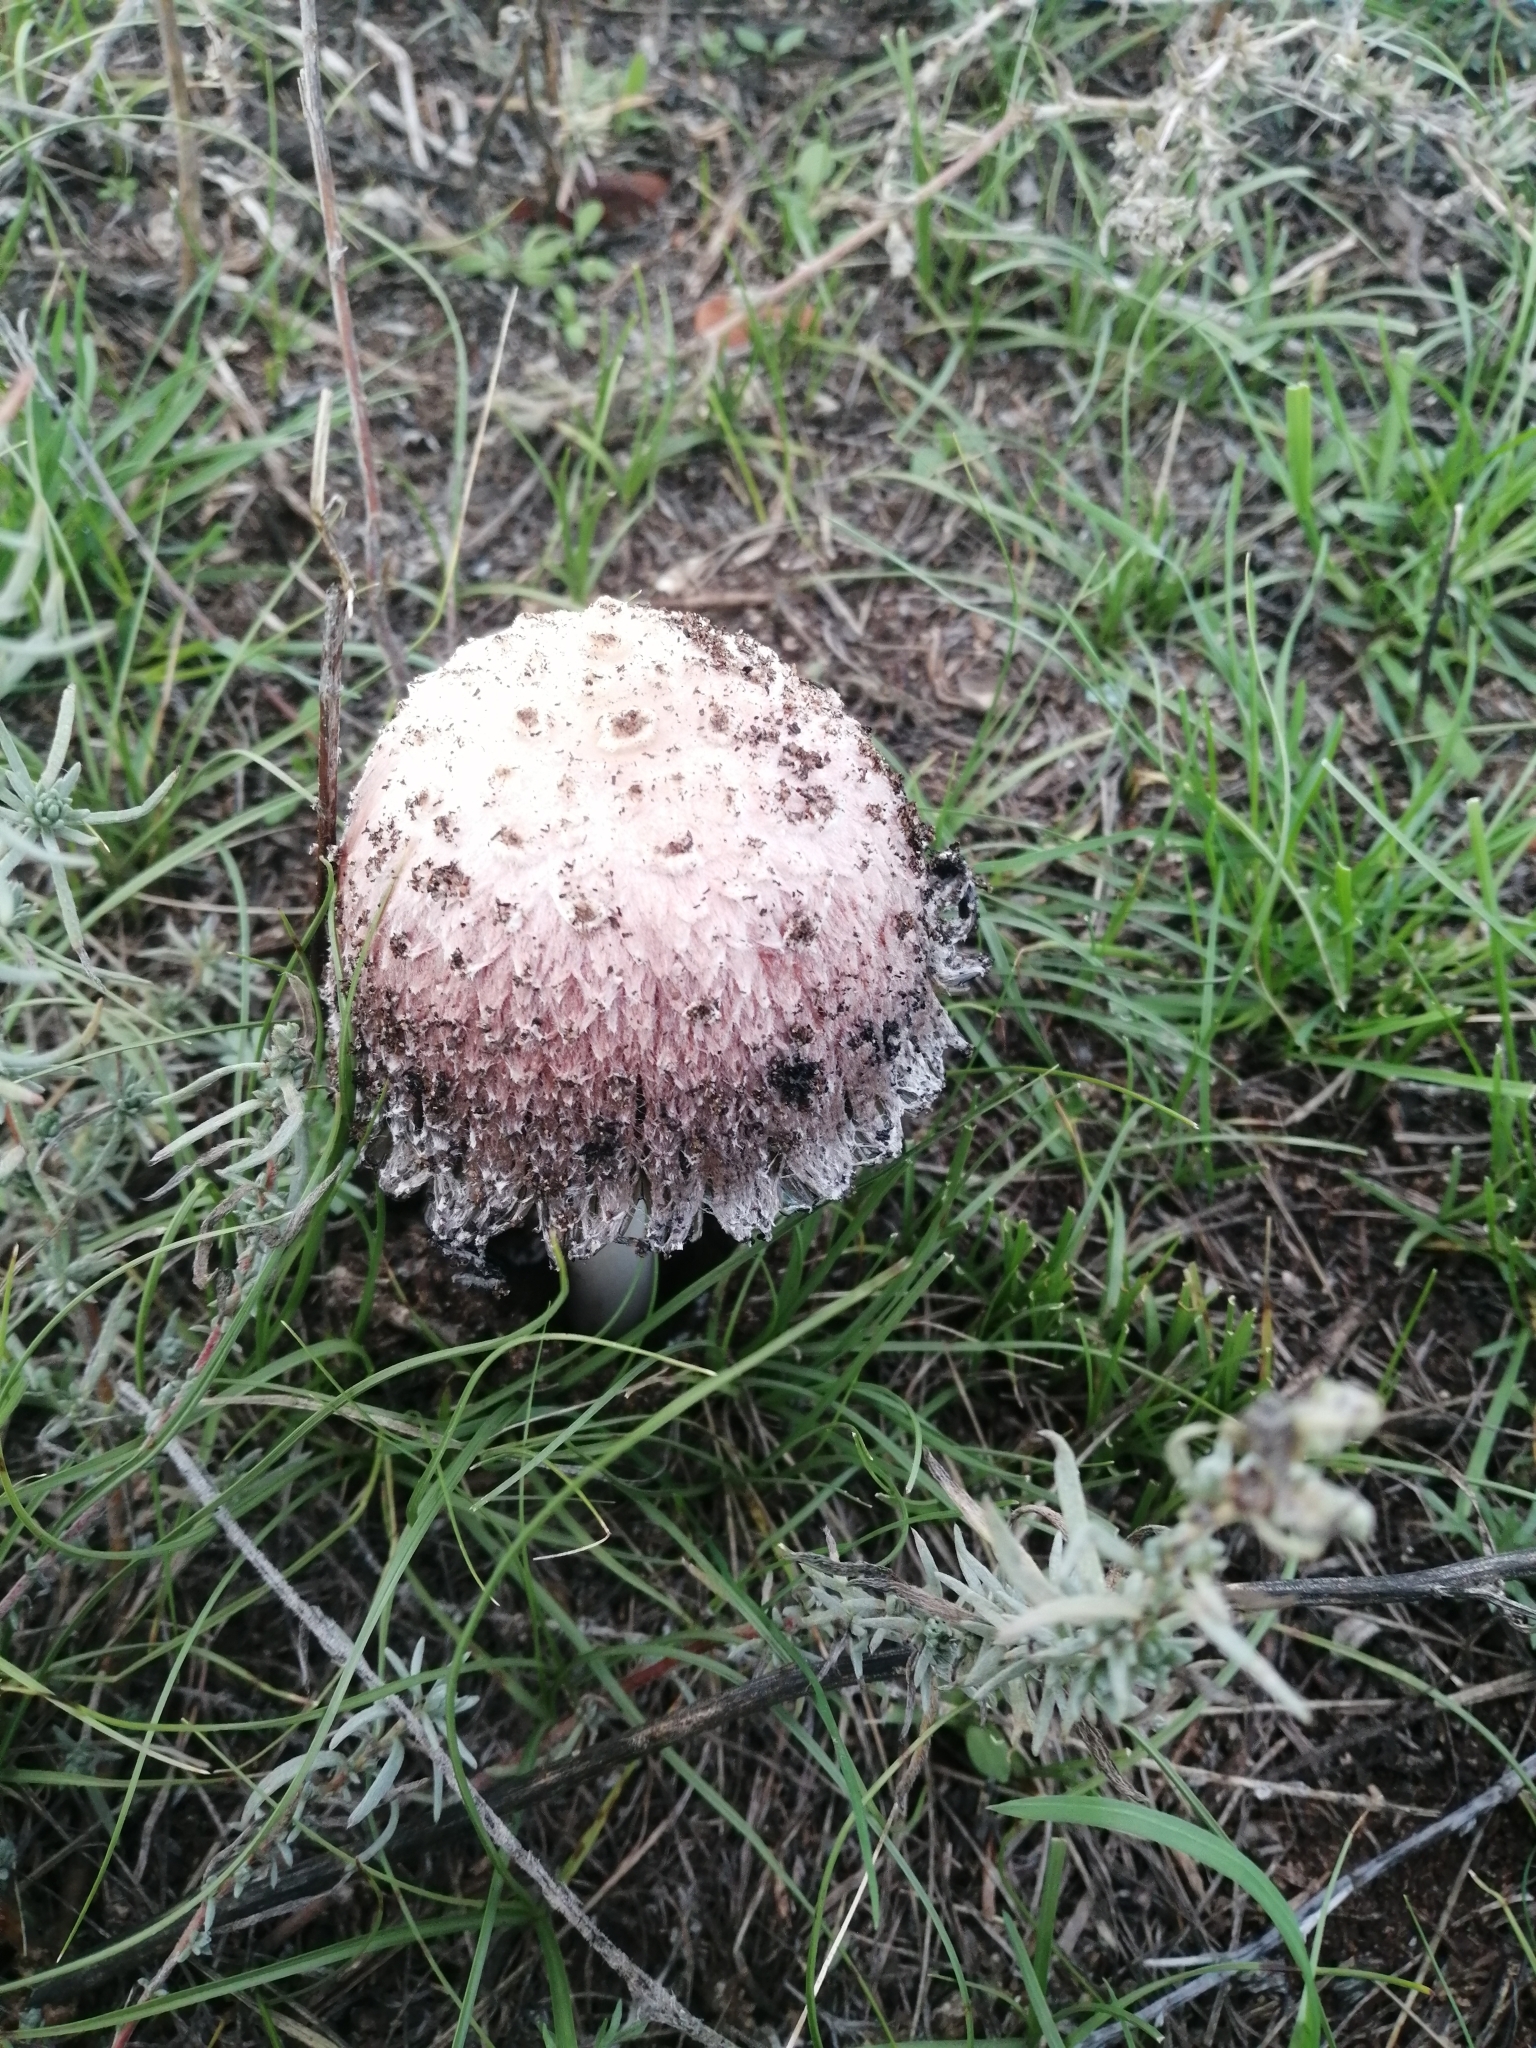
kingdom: Fungi
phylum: Basidiomycota
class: Agaricomycetes
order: Agaricales
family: Agaricaceae
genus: Coprinus
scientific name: Coprinus comatus
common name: Lawyer's wig
